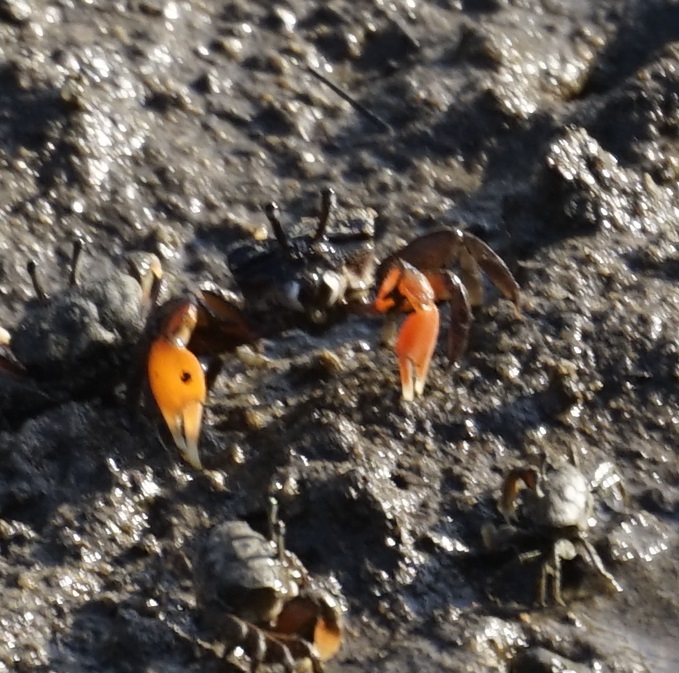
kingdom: Animalia
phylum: Arthropoda
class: Malacostraca
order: Decapoda
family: Heloeciidae
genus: Heloecius
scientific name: Heloecius cordiformis
